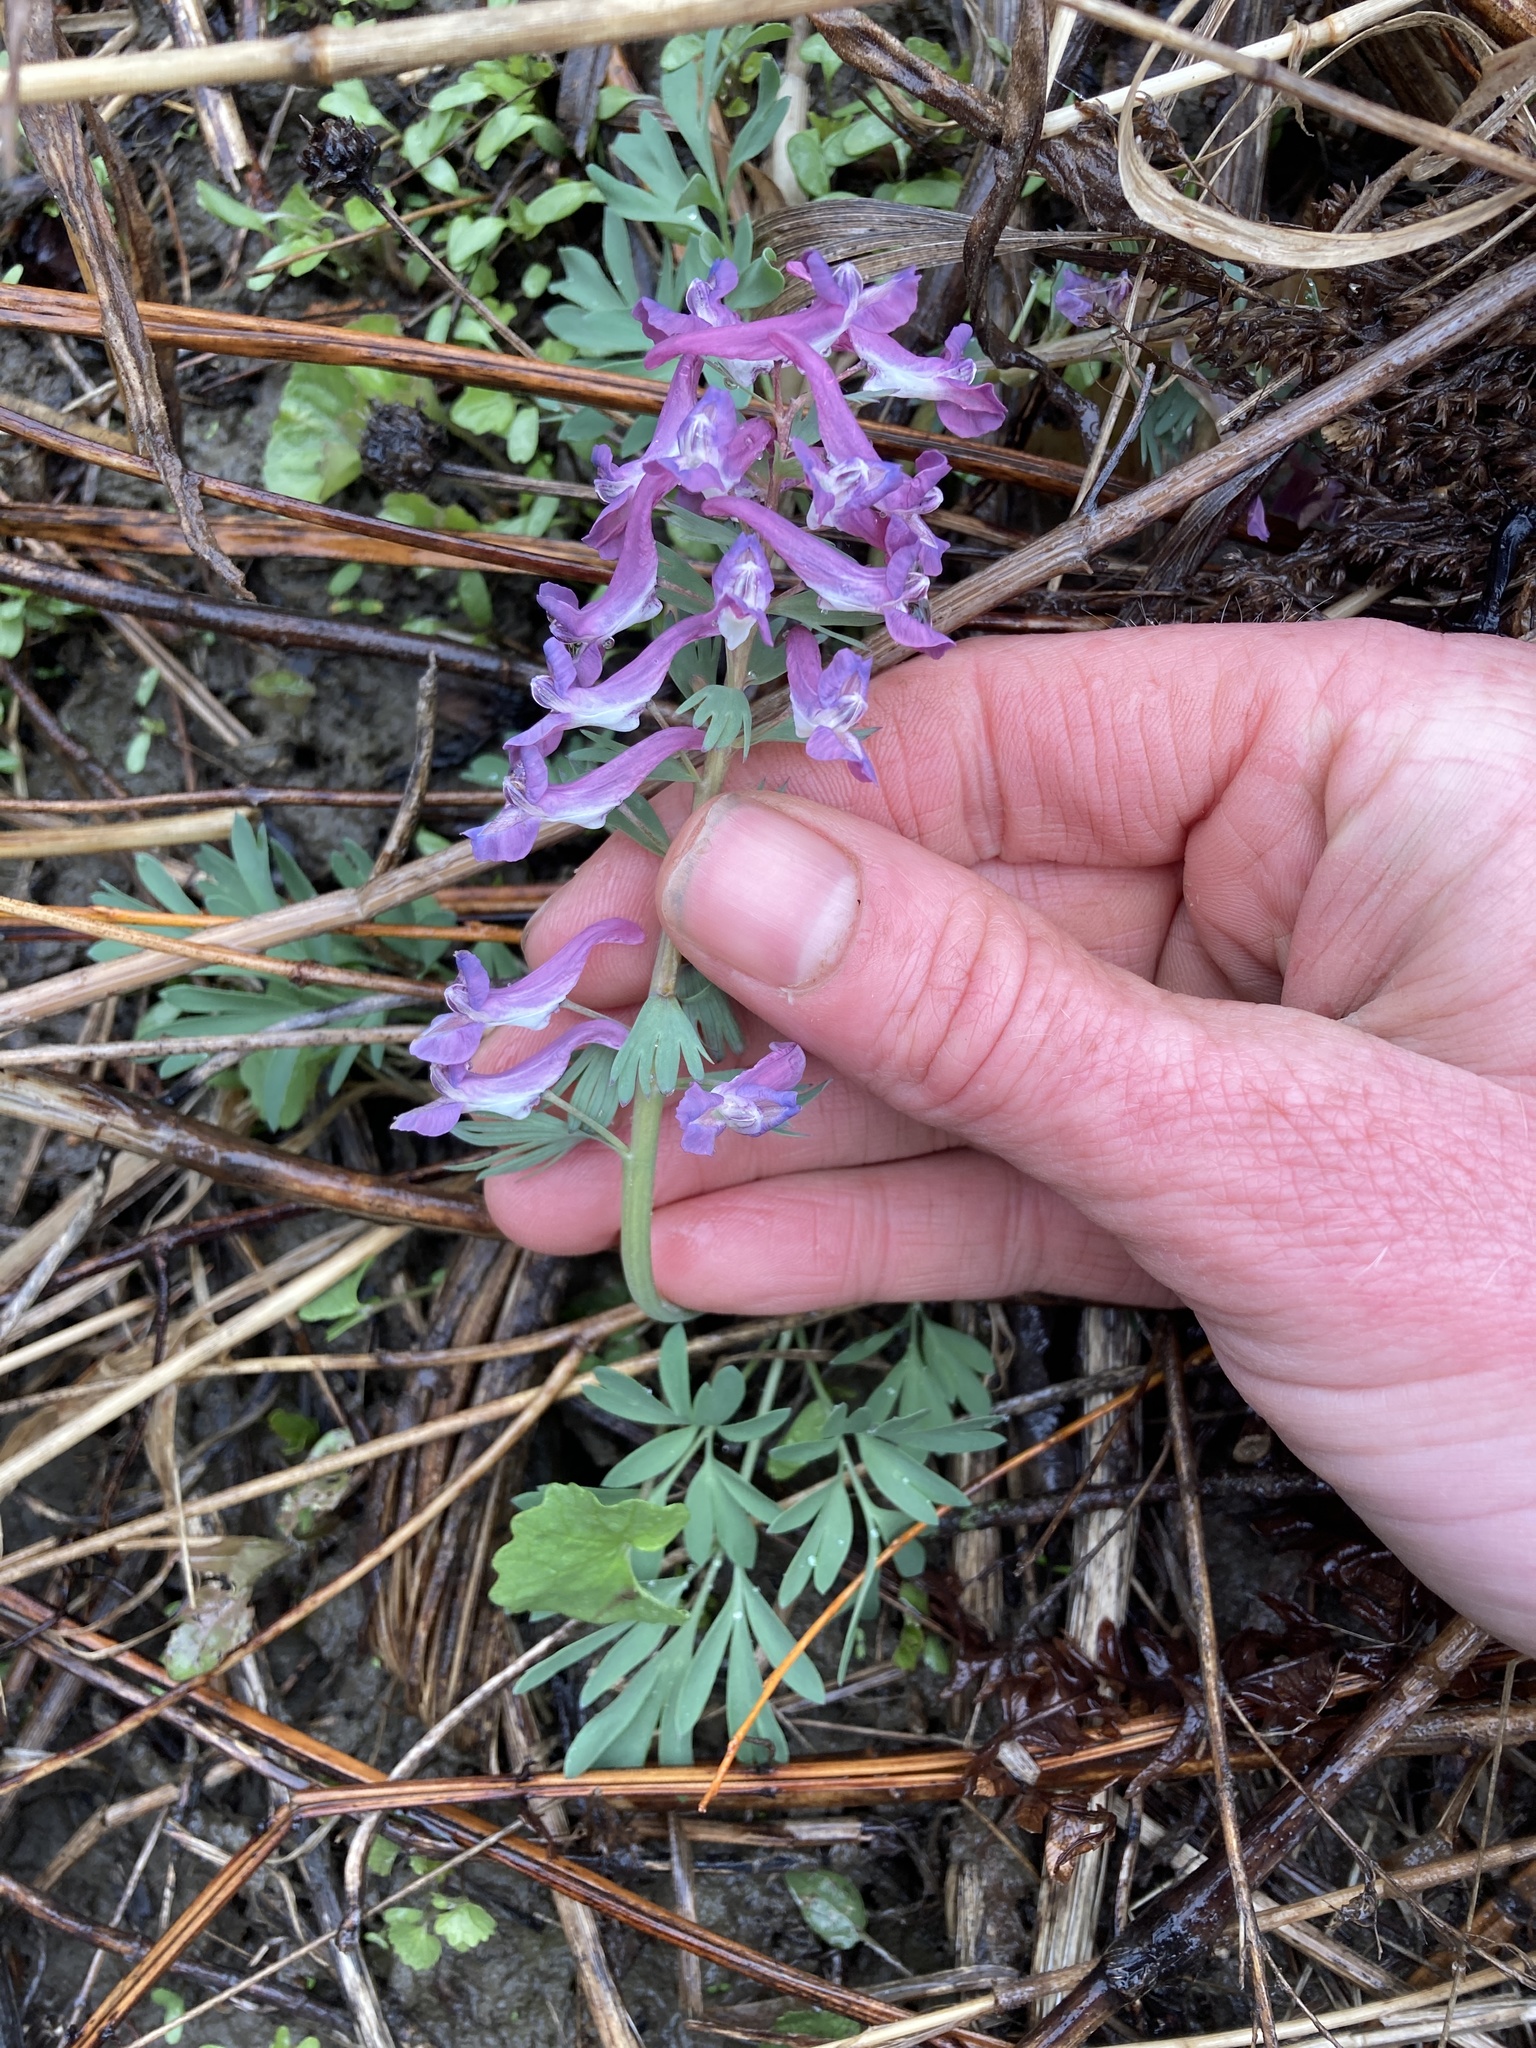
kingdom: Plantae
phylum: Tracheophyta
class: Magnoliopsida
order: Ranunculales
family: Papaveraceae
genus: Corydalis
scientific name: Corydalis solida
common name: Bird-in-a-bush
